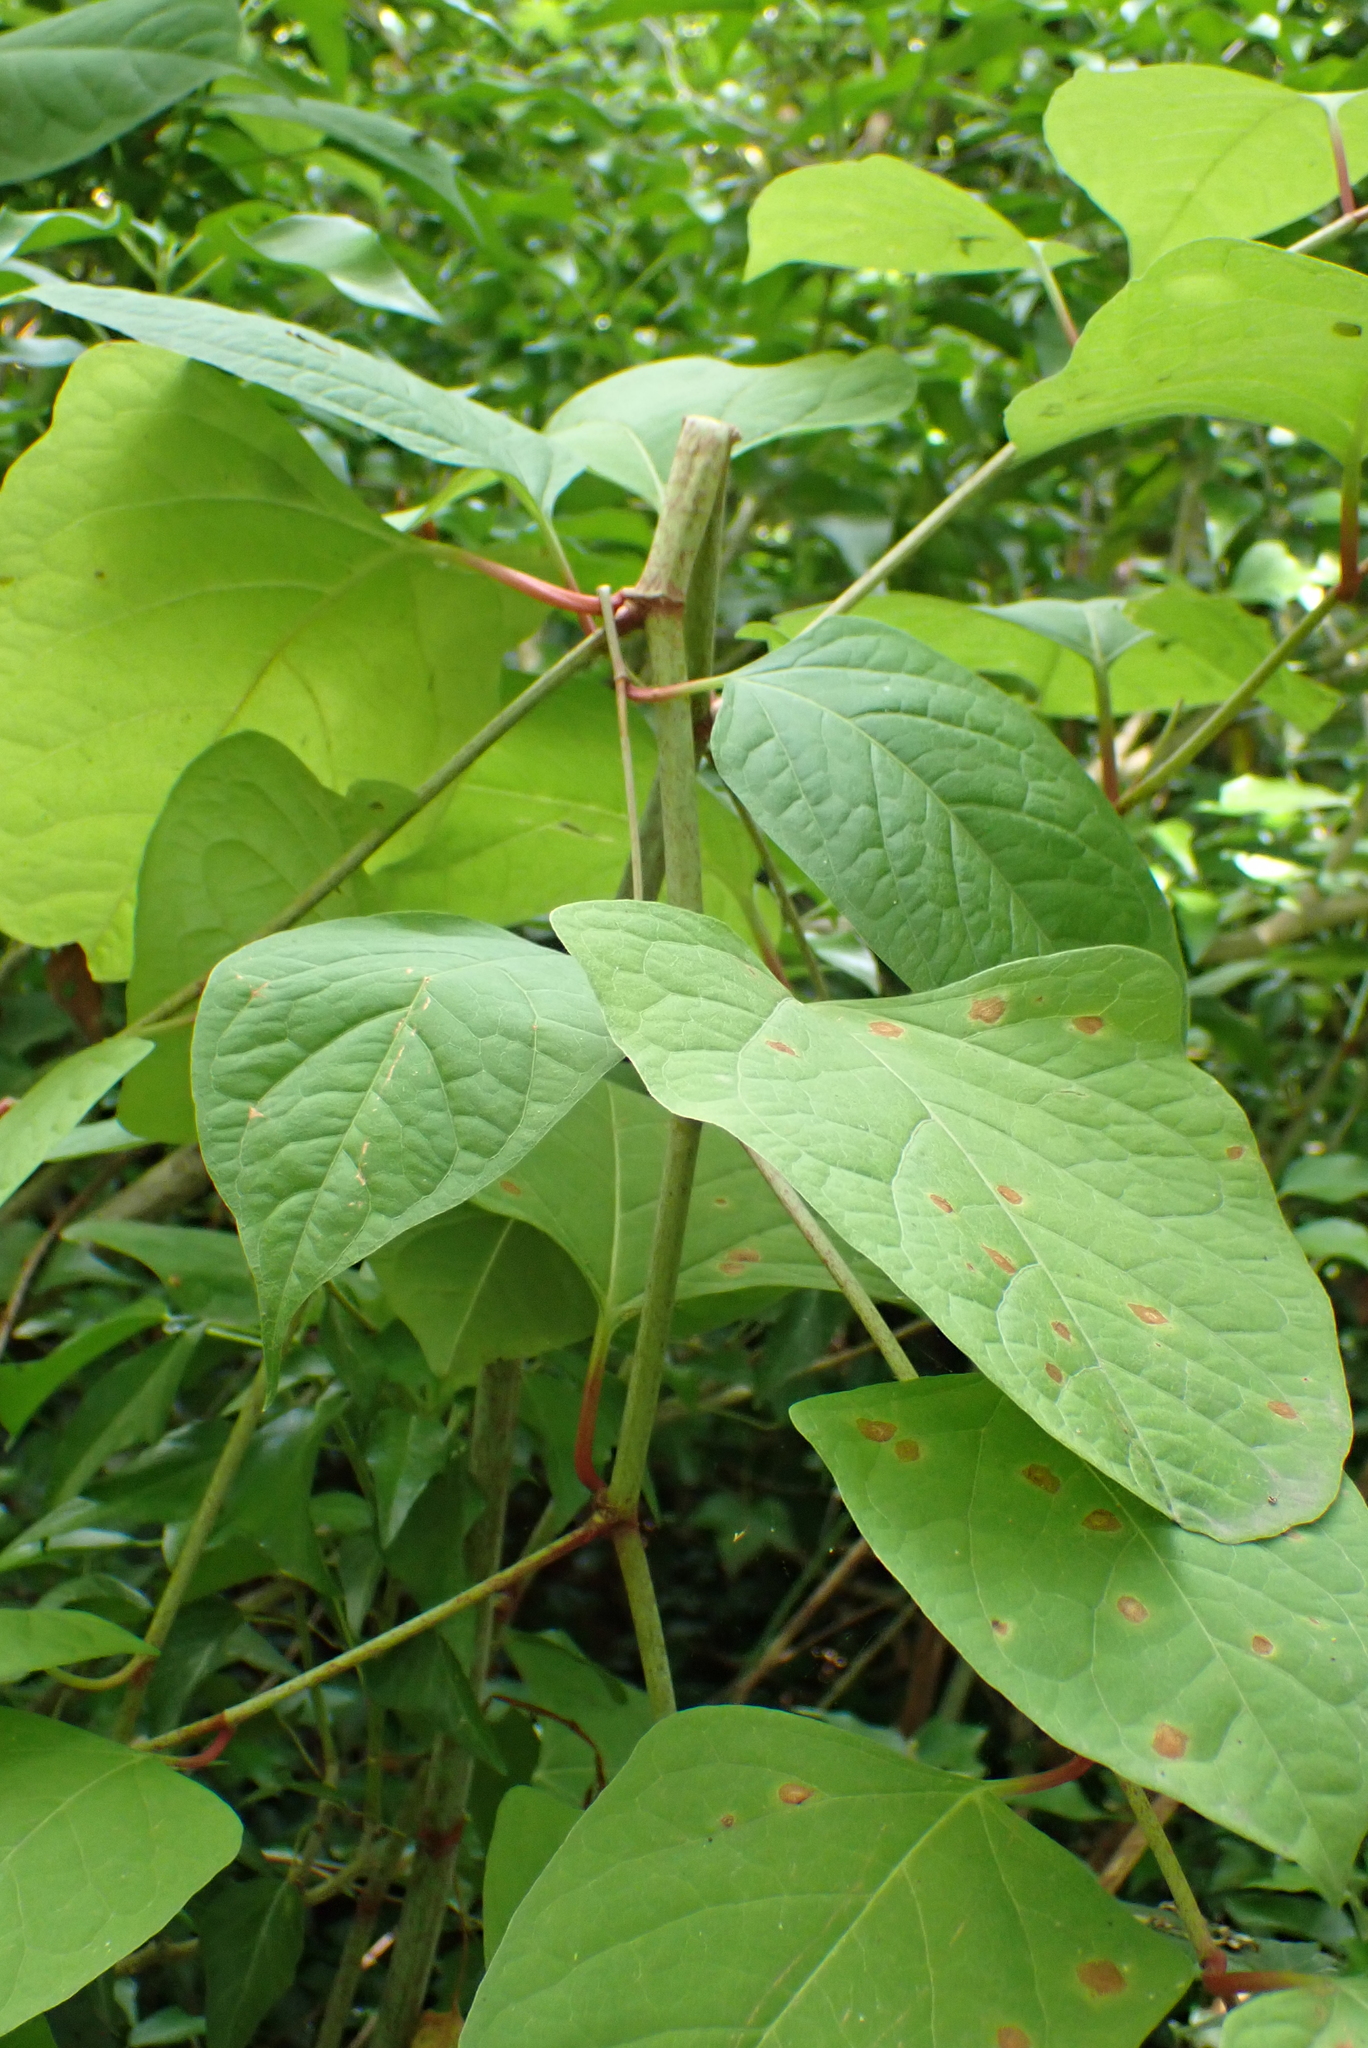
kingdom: Plantae
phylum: Tracheophyta
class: Magnoliopsida
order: Caryophyllales
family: Polygonaceae
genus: Reynoutria
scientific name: Reynoutria japonica
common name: Japanese knotweed
